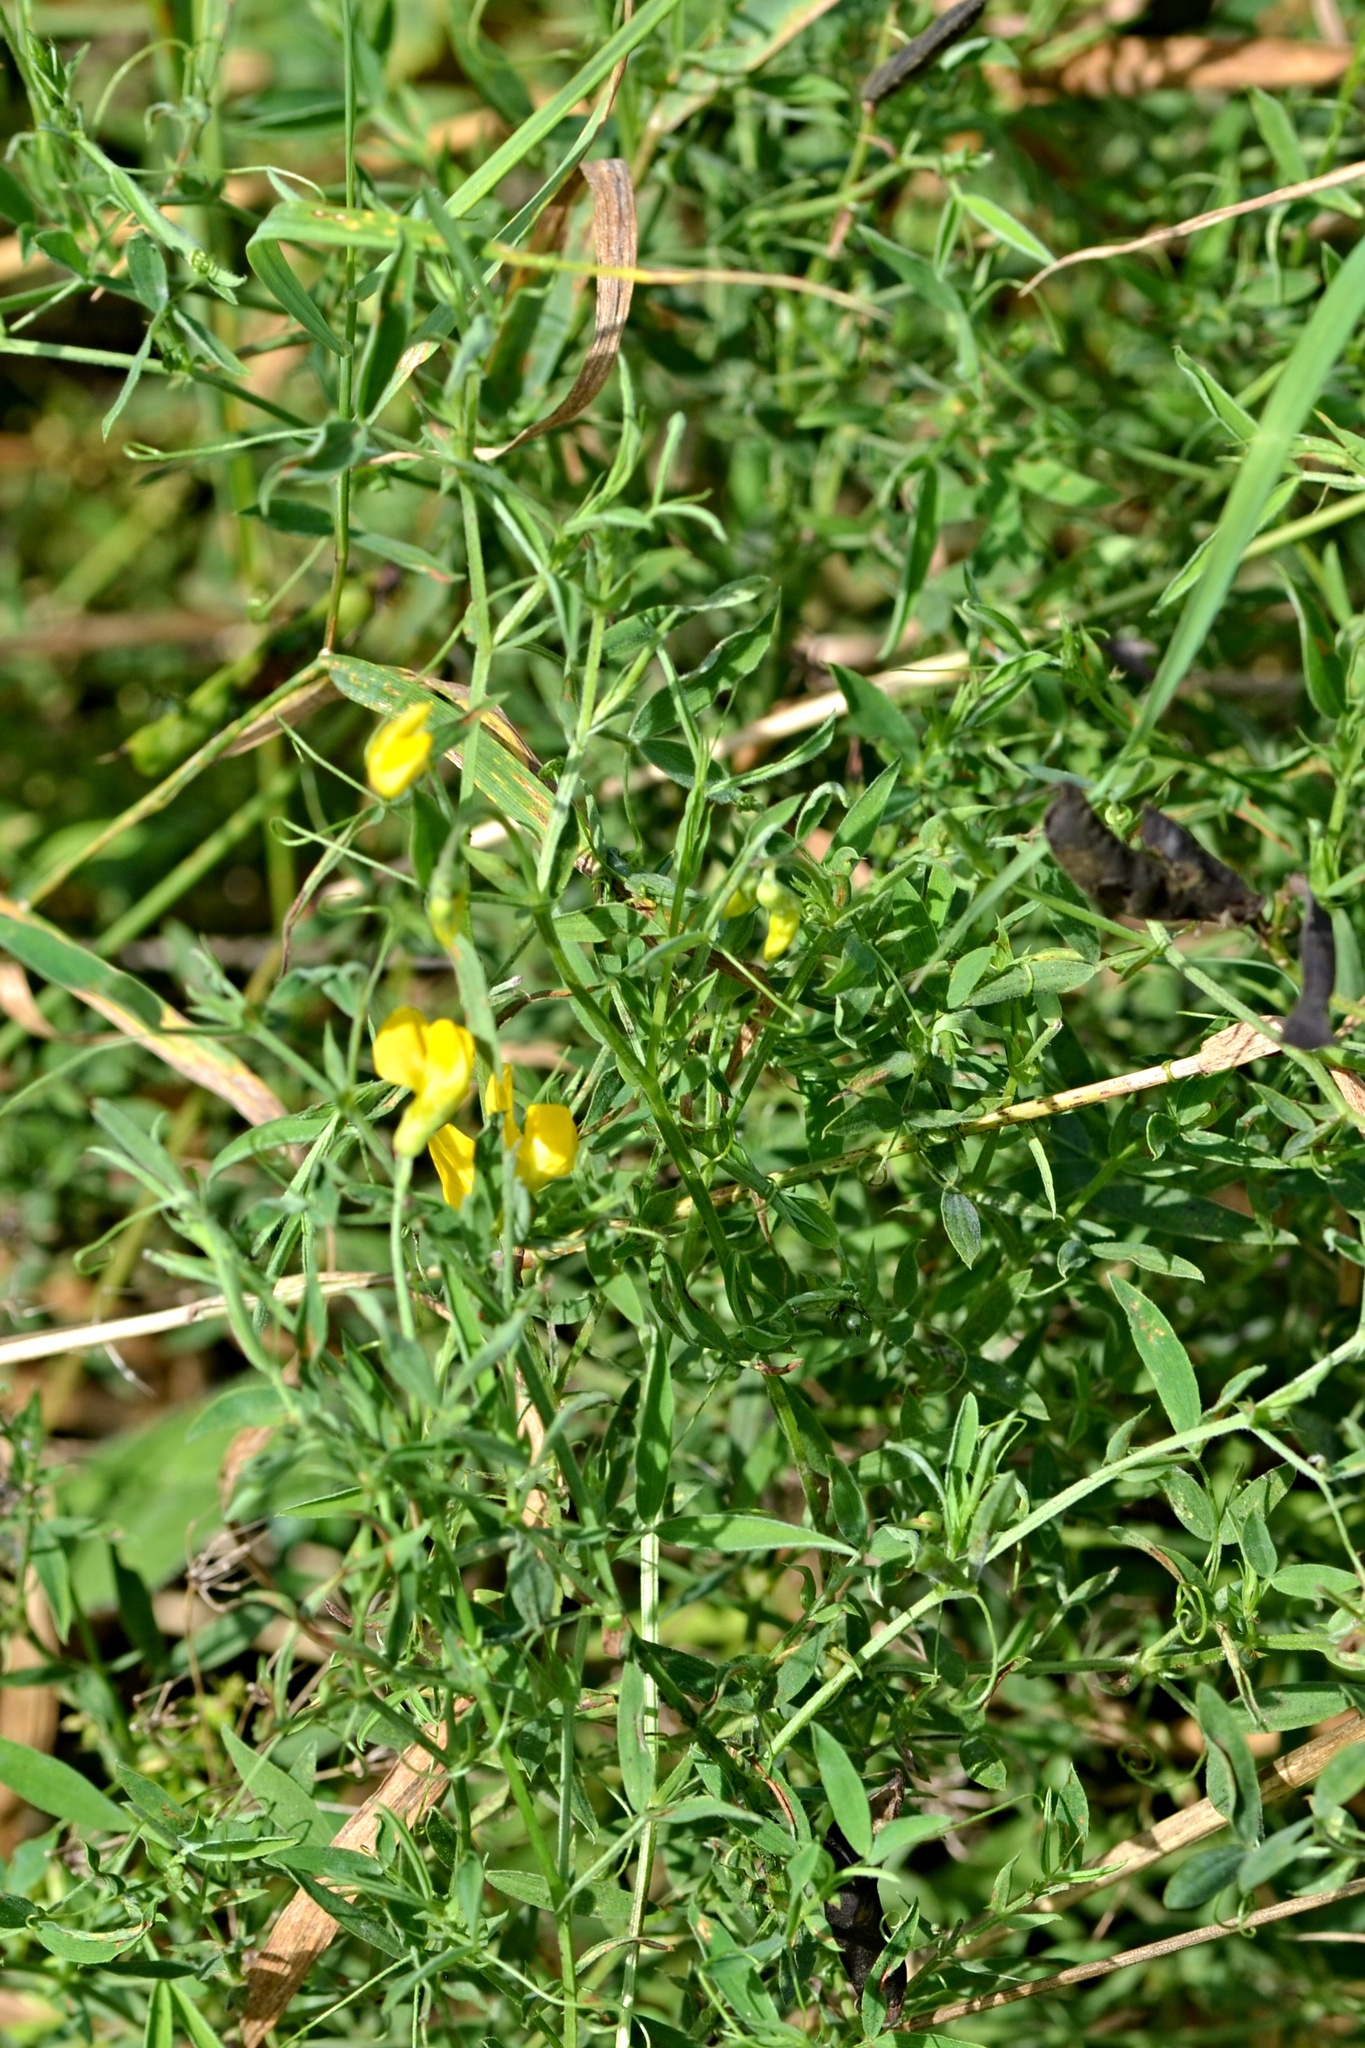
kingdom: Plantae
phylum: Tracheophyta
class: Magnoliopsida
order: Fabales
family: Fabaceae
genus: Lathyrus
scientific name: Lathyrus pratensis
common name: Meadow vetchling
